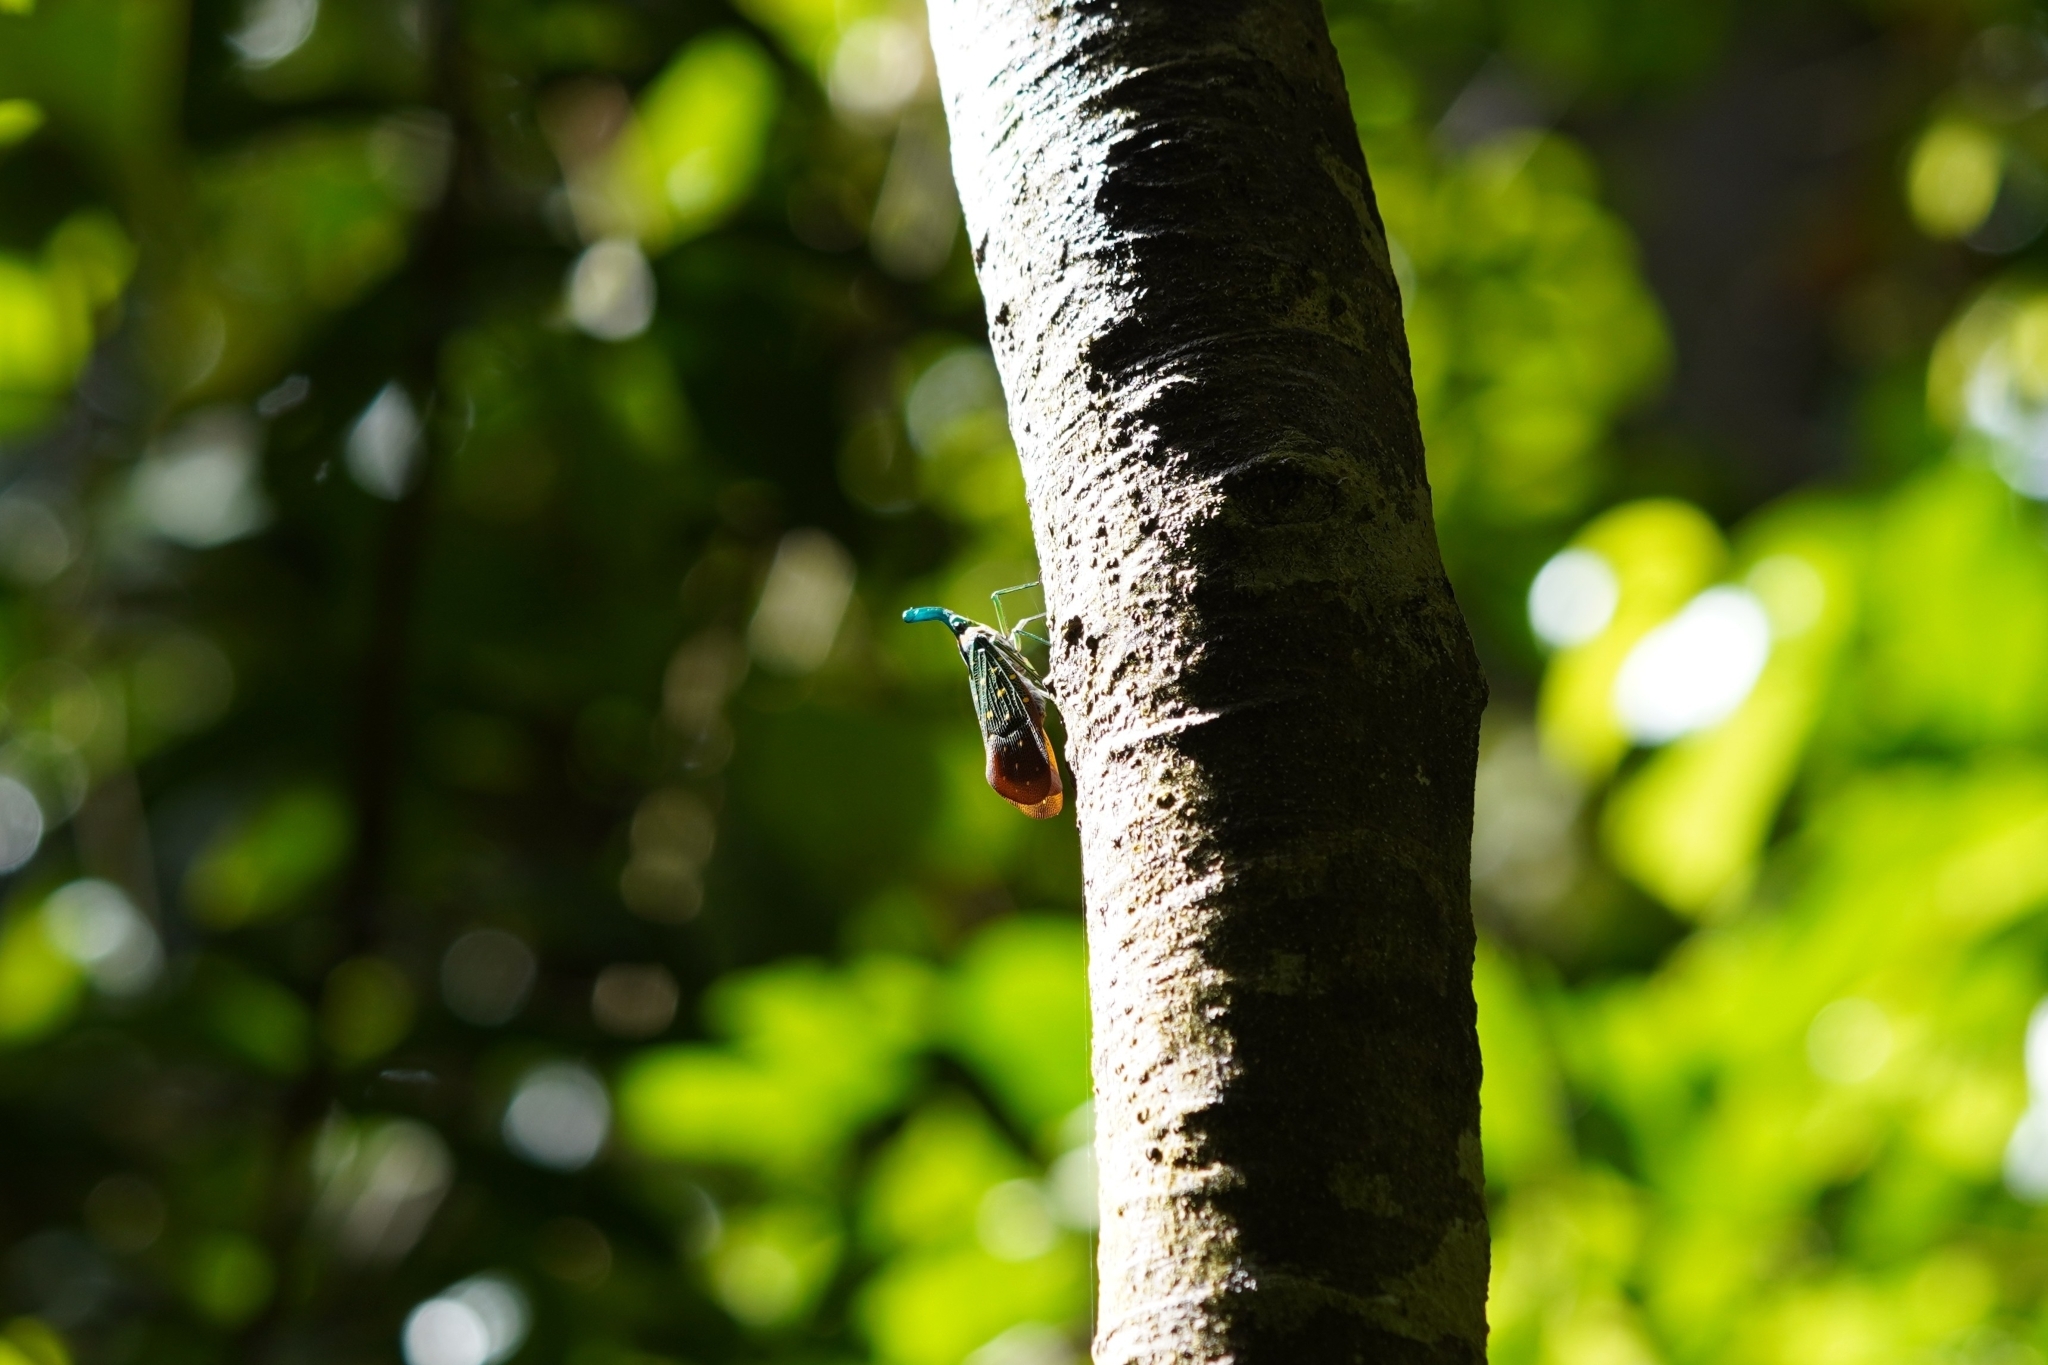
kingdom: Animalia
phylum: Arthropoda
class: Insecta
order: Hemiptera
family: Fulgoridae
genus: Pyrops
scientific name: Pyrops whiteheadi
